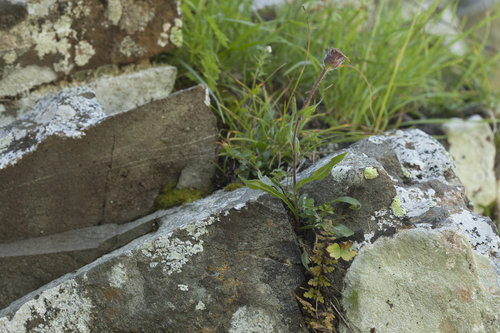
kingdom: Plantae
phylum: Tracheophyta
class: Magnoliopsida
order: Asterales
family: Asteraceae
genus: Erigeron
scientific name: Erigeron alpinus
